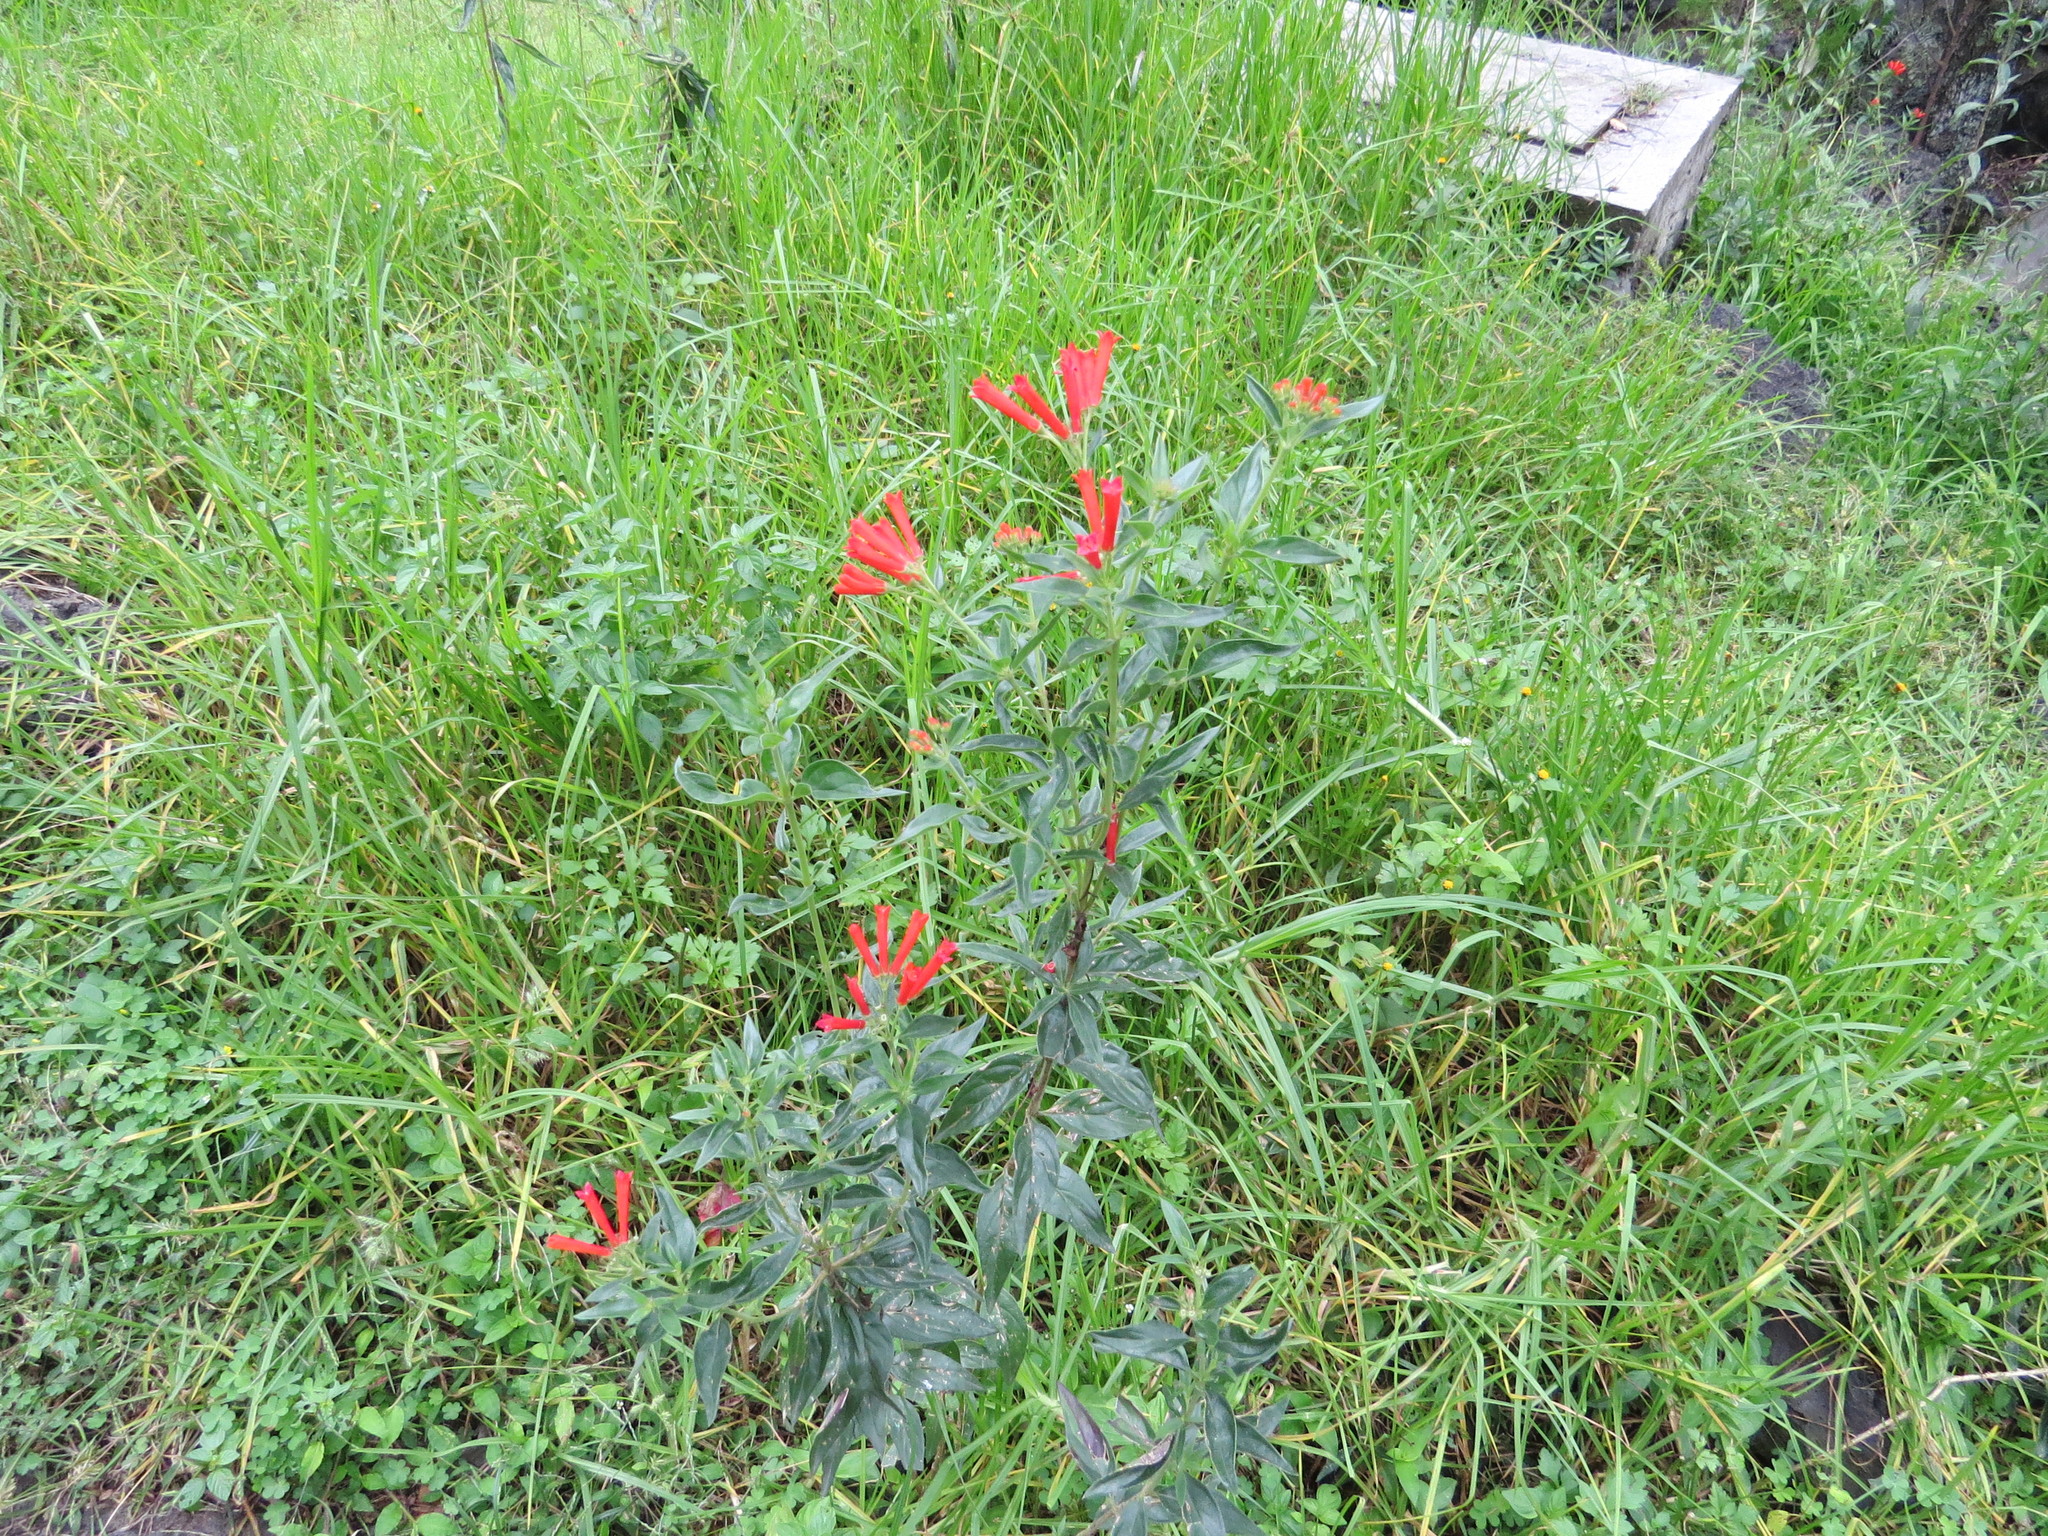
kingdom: Plantae
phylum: Tracheophyta
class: Magnoliopsida
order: Gentianales
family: Rubiaceae
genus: Bouvardia
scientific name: Bouvardia ternifolia
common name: Scarlet bouvardia
